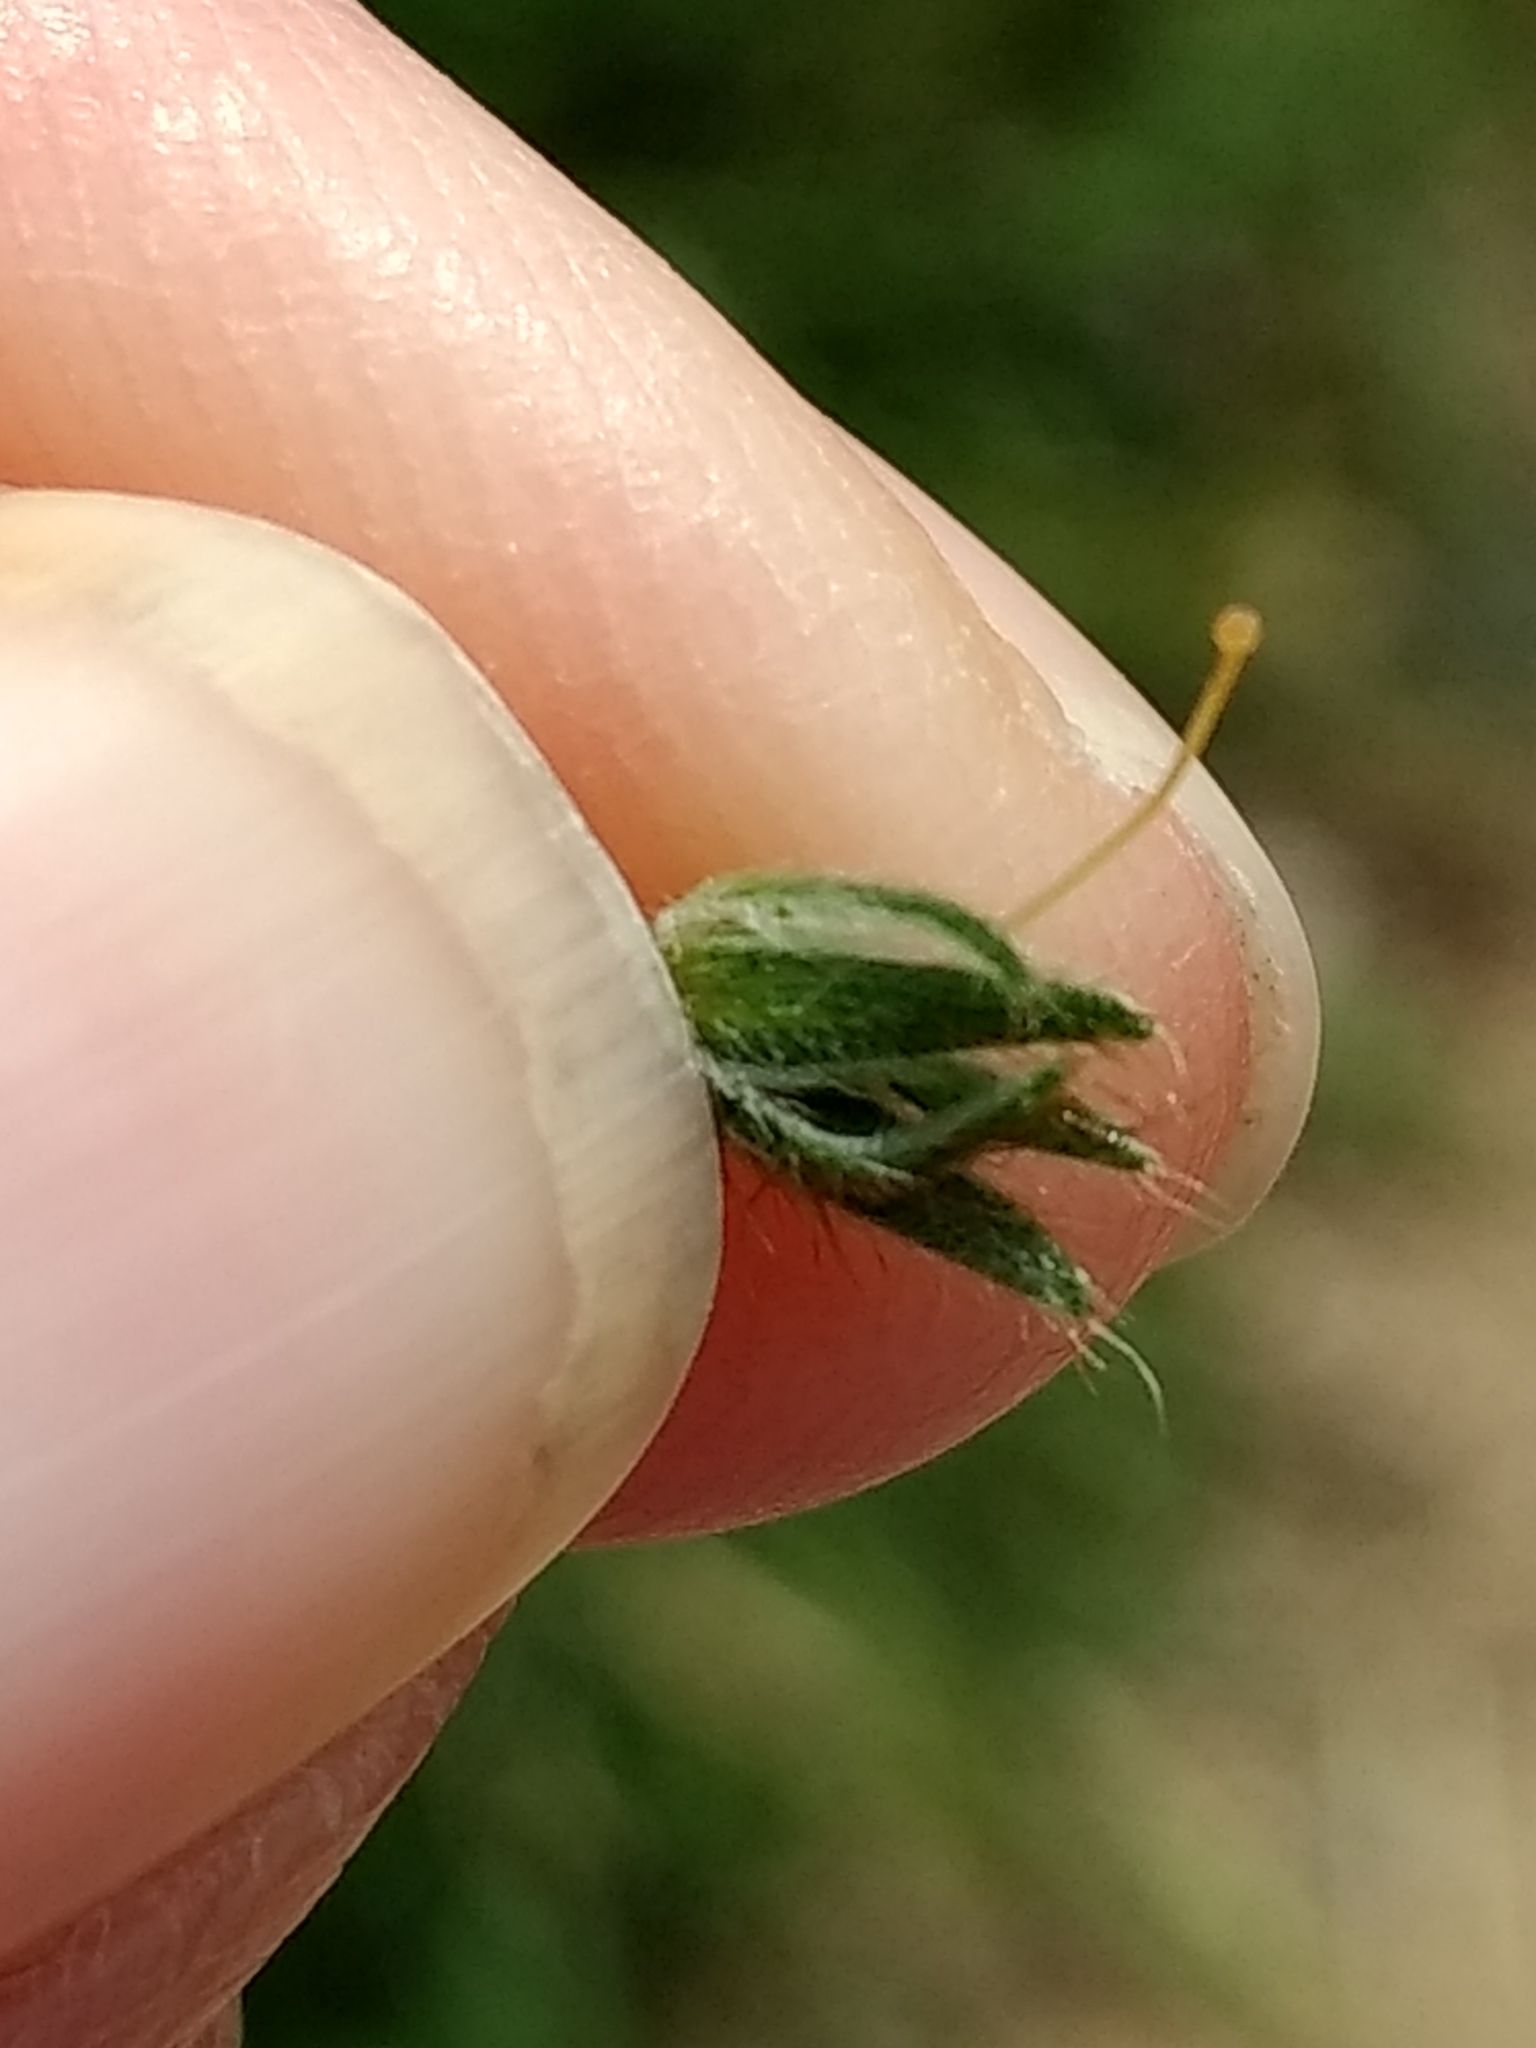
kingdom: Plantae
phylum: Tracheophyta
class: Magnoliopsida
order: Boraginales
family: Boraginaceae
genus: Amsinckia
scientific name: Amsinckia menziesii
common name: Menzies' fiddleneck
